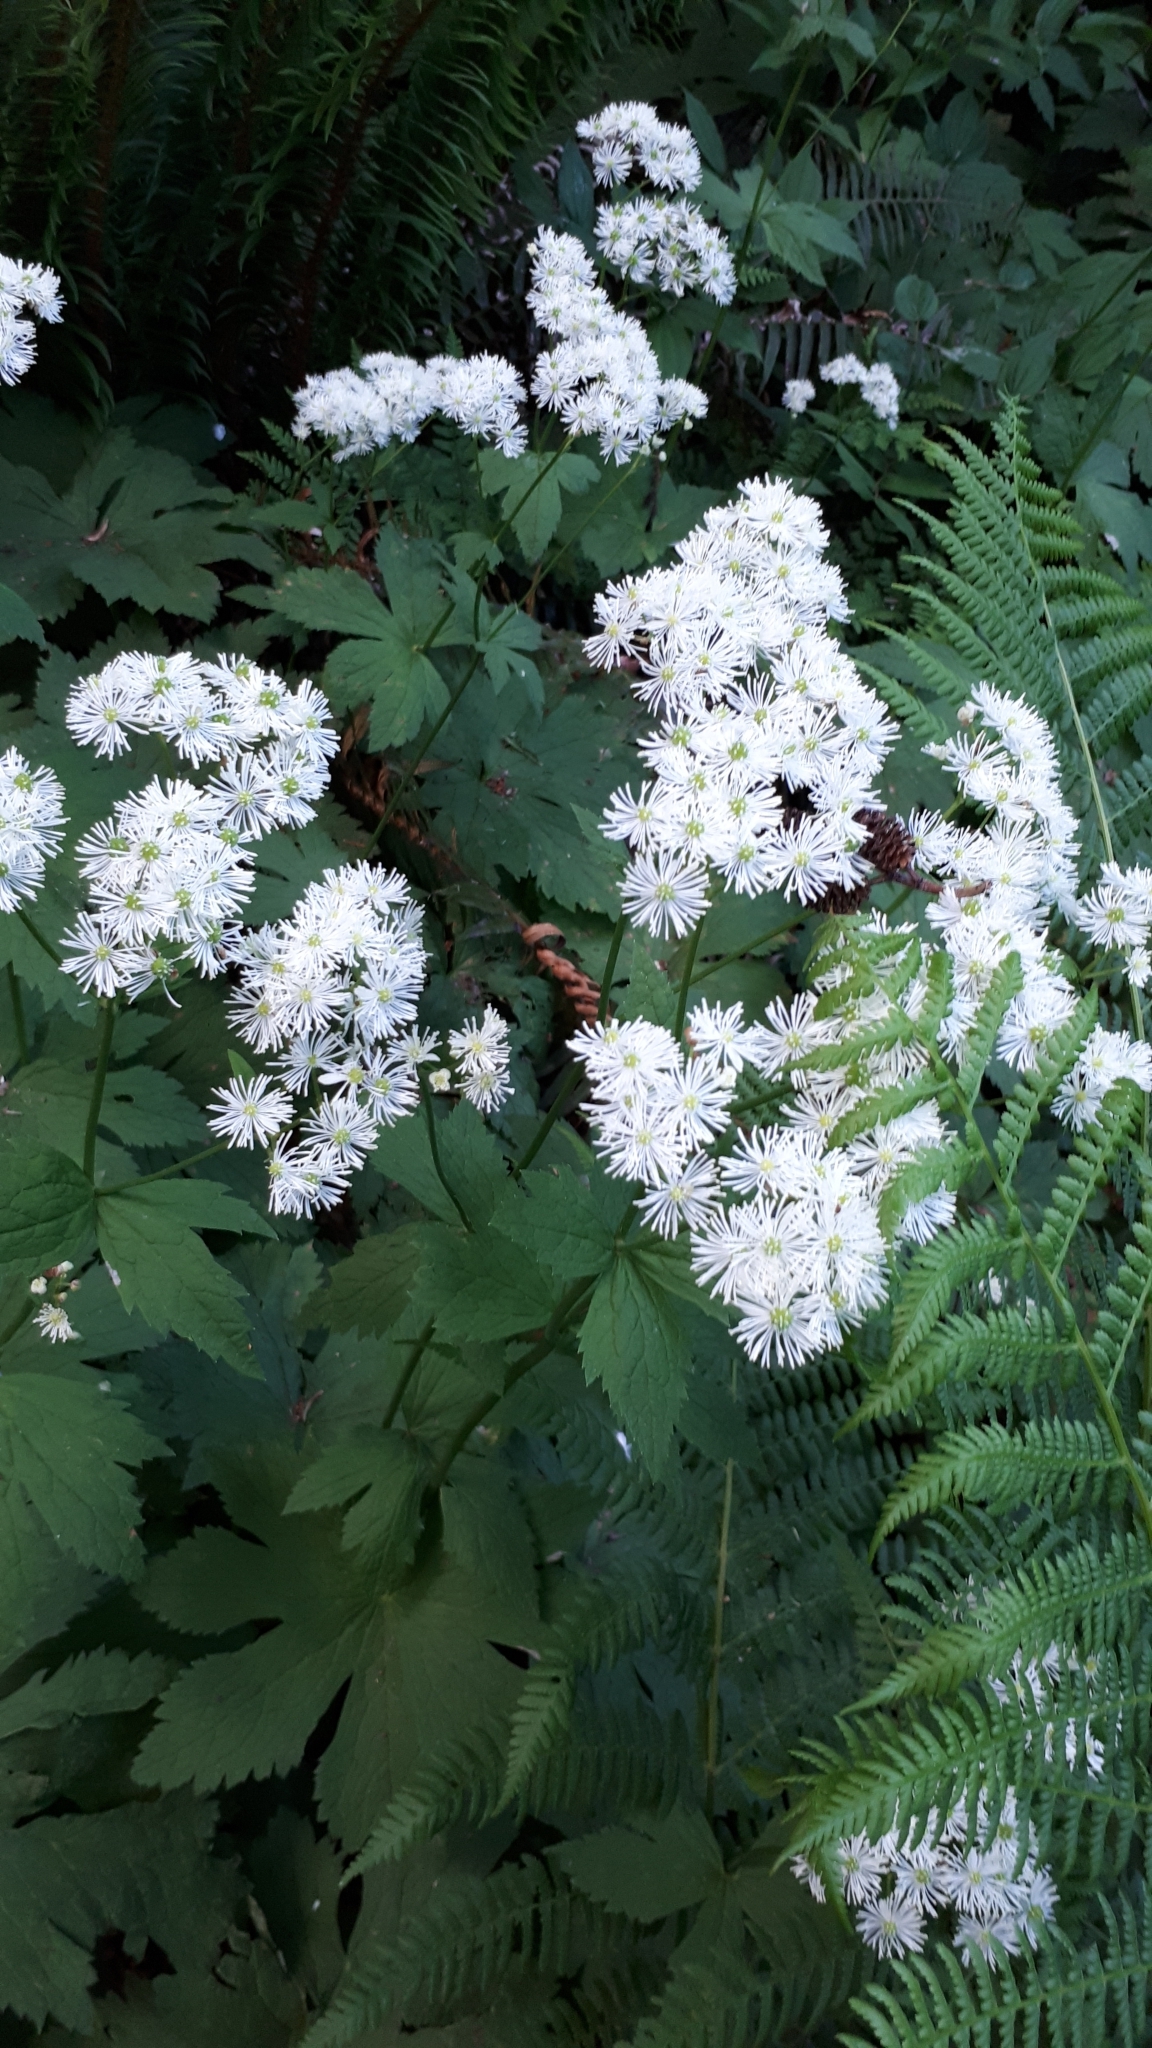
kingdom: Plantae
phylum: Tracheophyta
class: Magnoliopsida
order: Ranunculales
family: Ranunculaceae
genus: Trautvetteria
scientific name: Trautvetteria carolinensis
